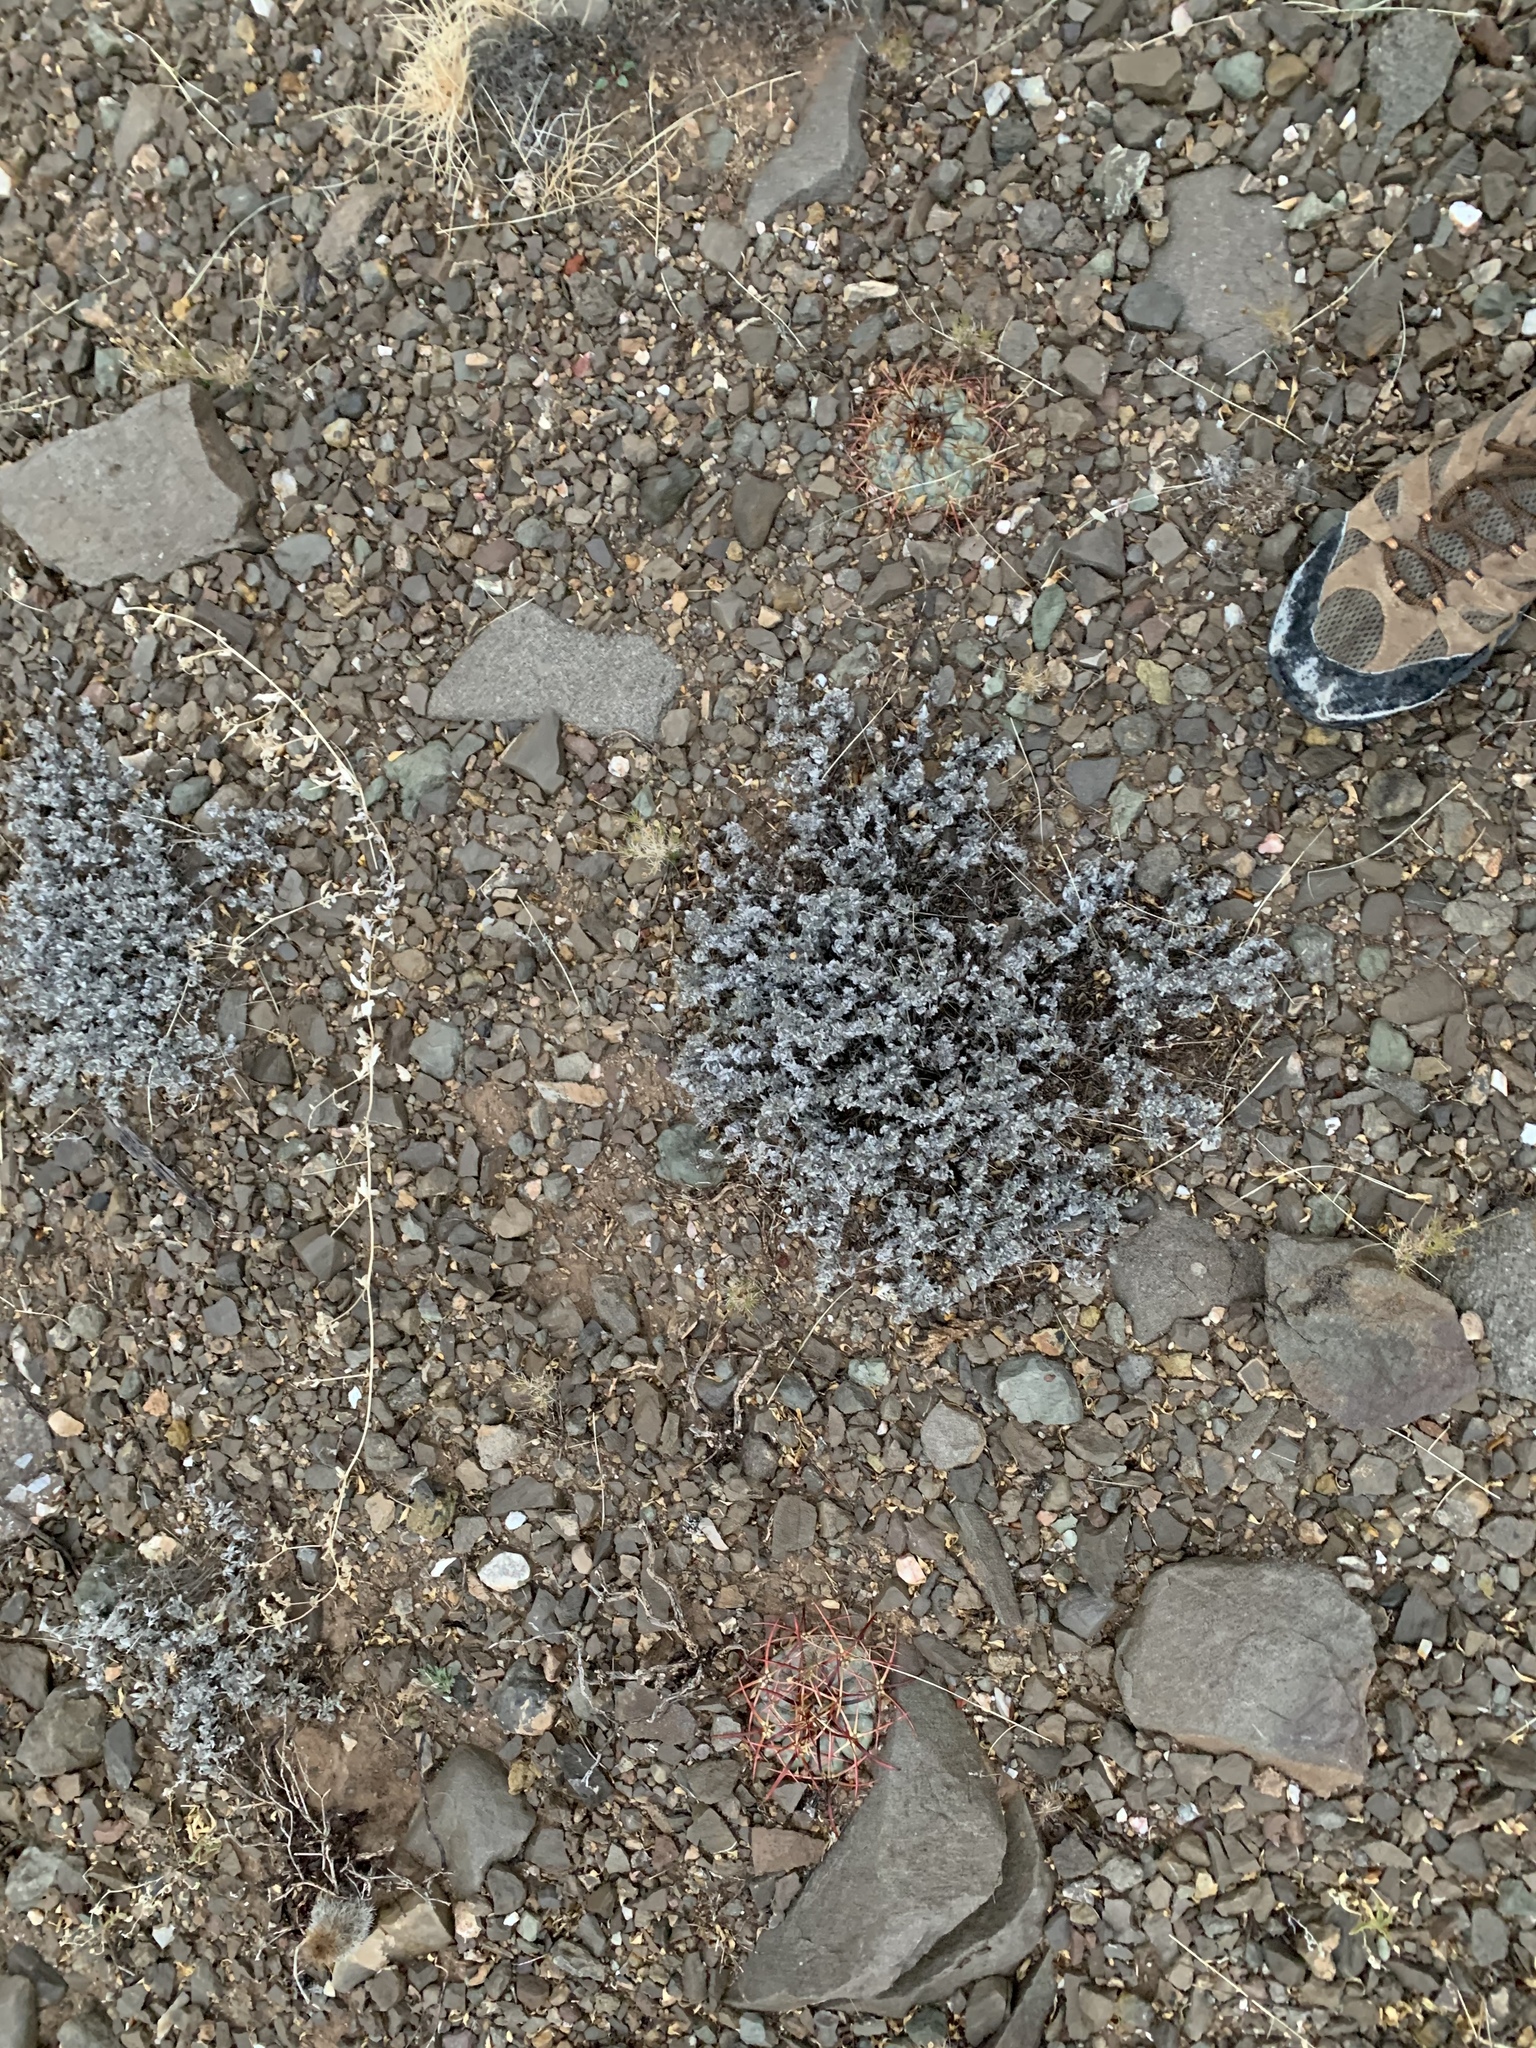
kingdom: Plantae
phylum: Tracheophyta
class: Magnoliopsida
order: Caryophyllales
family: Cactaceae
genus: Echinocactus
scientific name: Echinocactus horizonthalonius
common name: Devilshead
